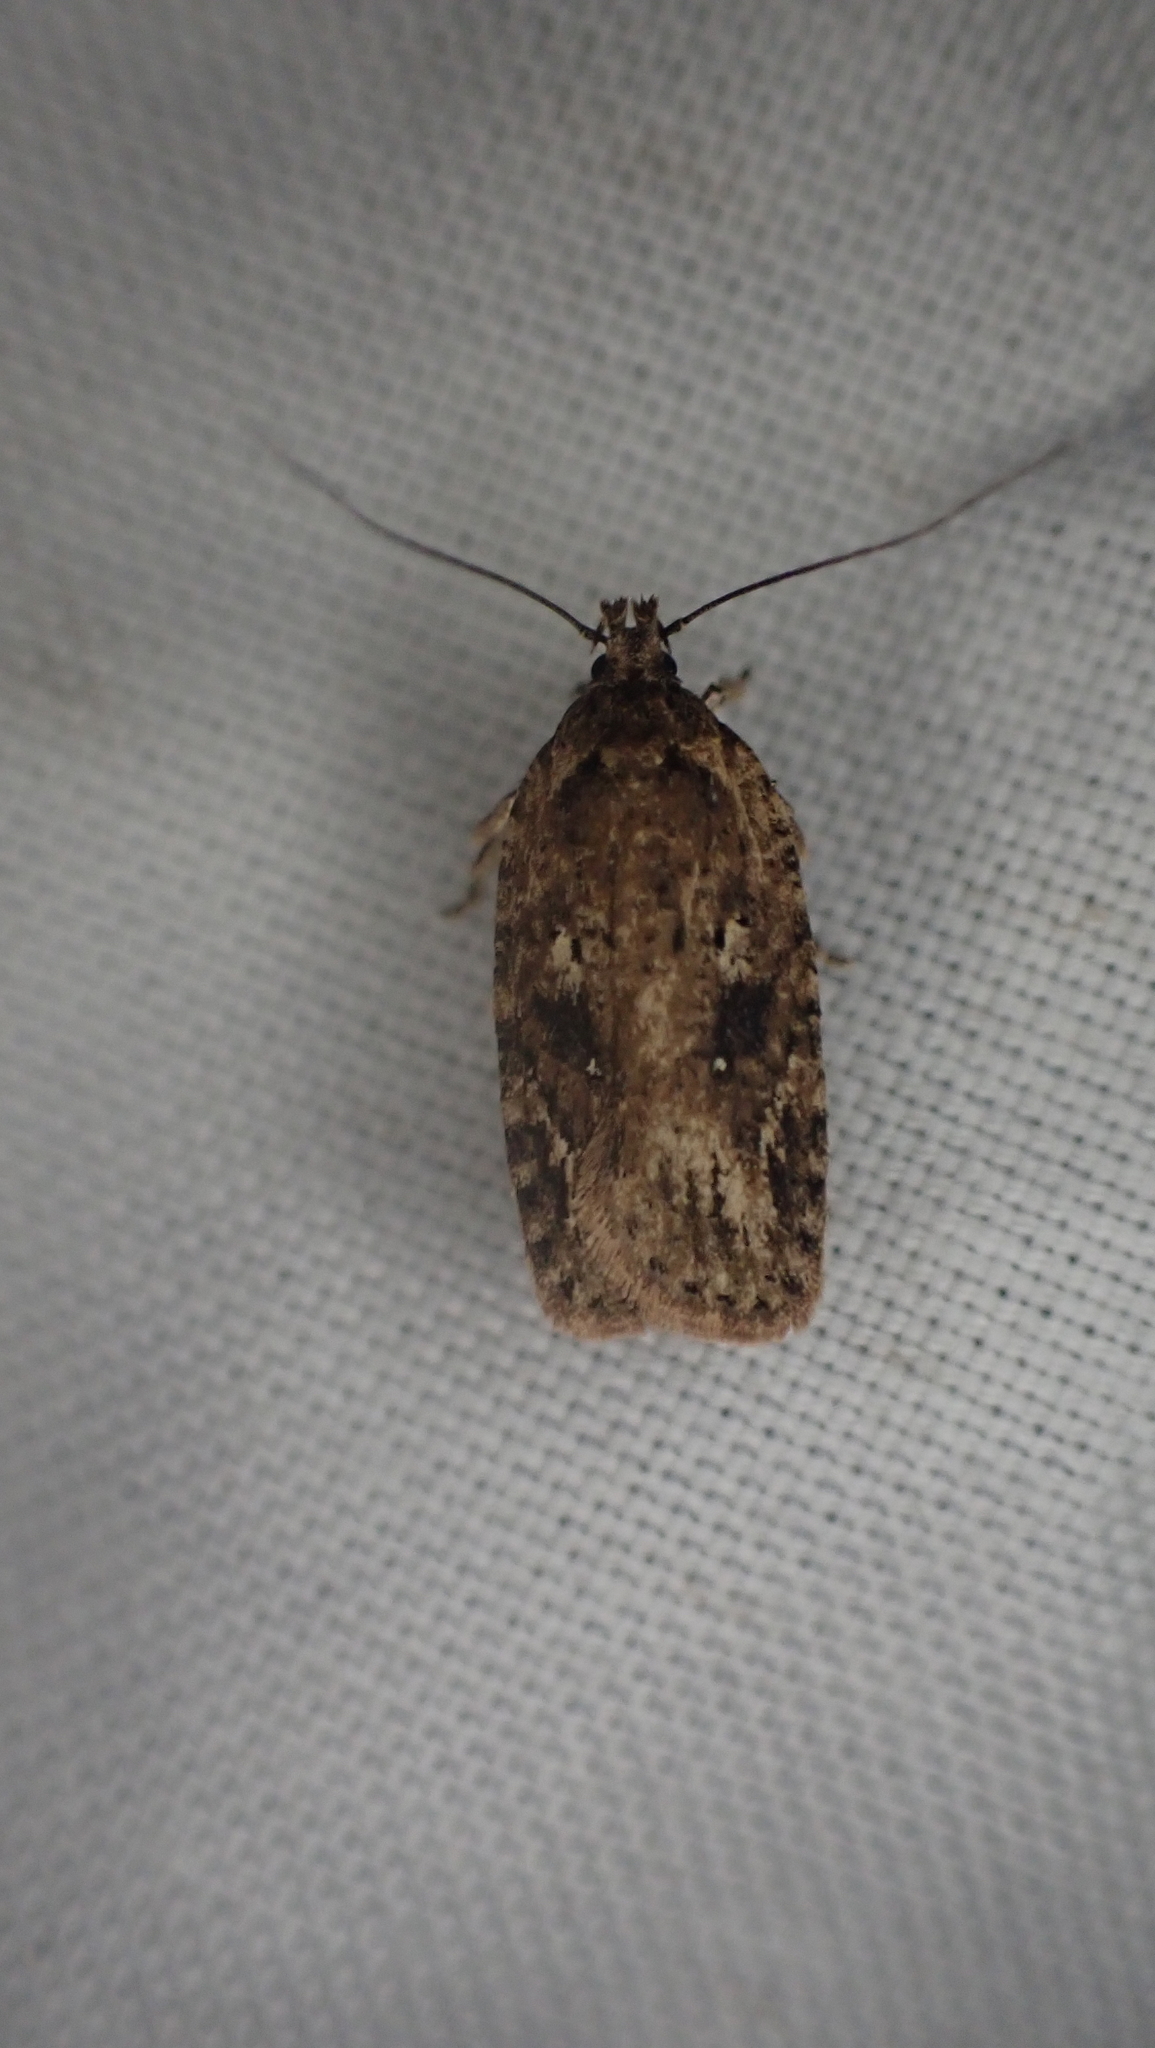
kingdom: Animalia
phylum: Arthropoda
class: Insecta
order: Lepidoptera
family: Depressariidae
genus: Agonopterix
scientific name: Agonopterix pulvipennella
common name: Goldenrod leafffolder
